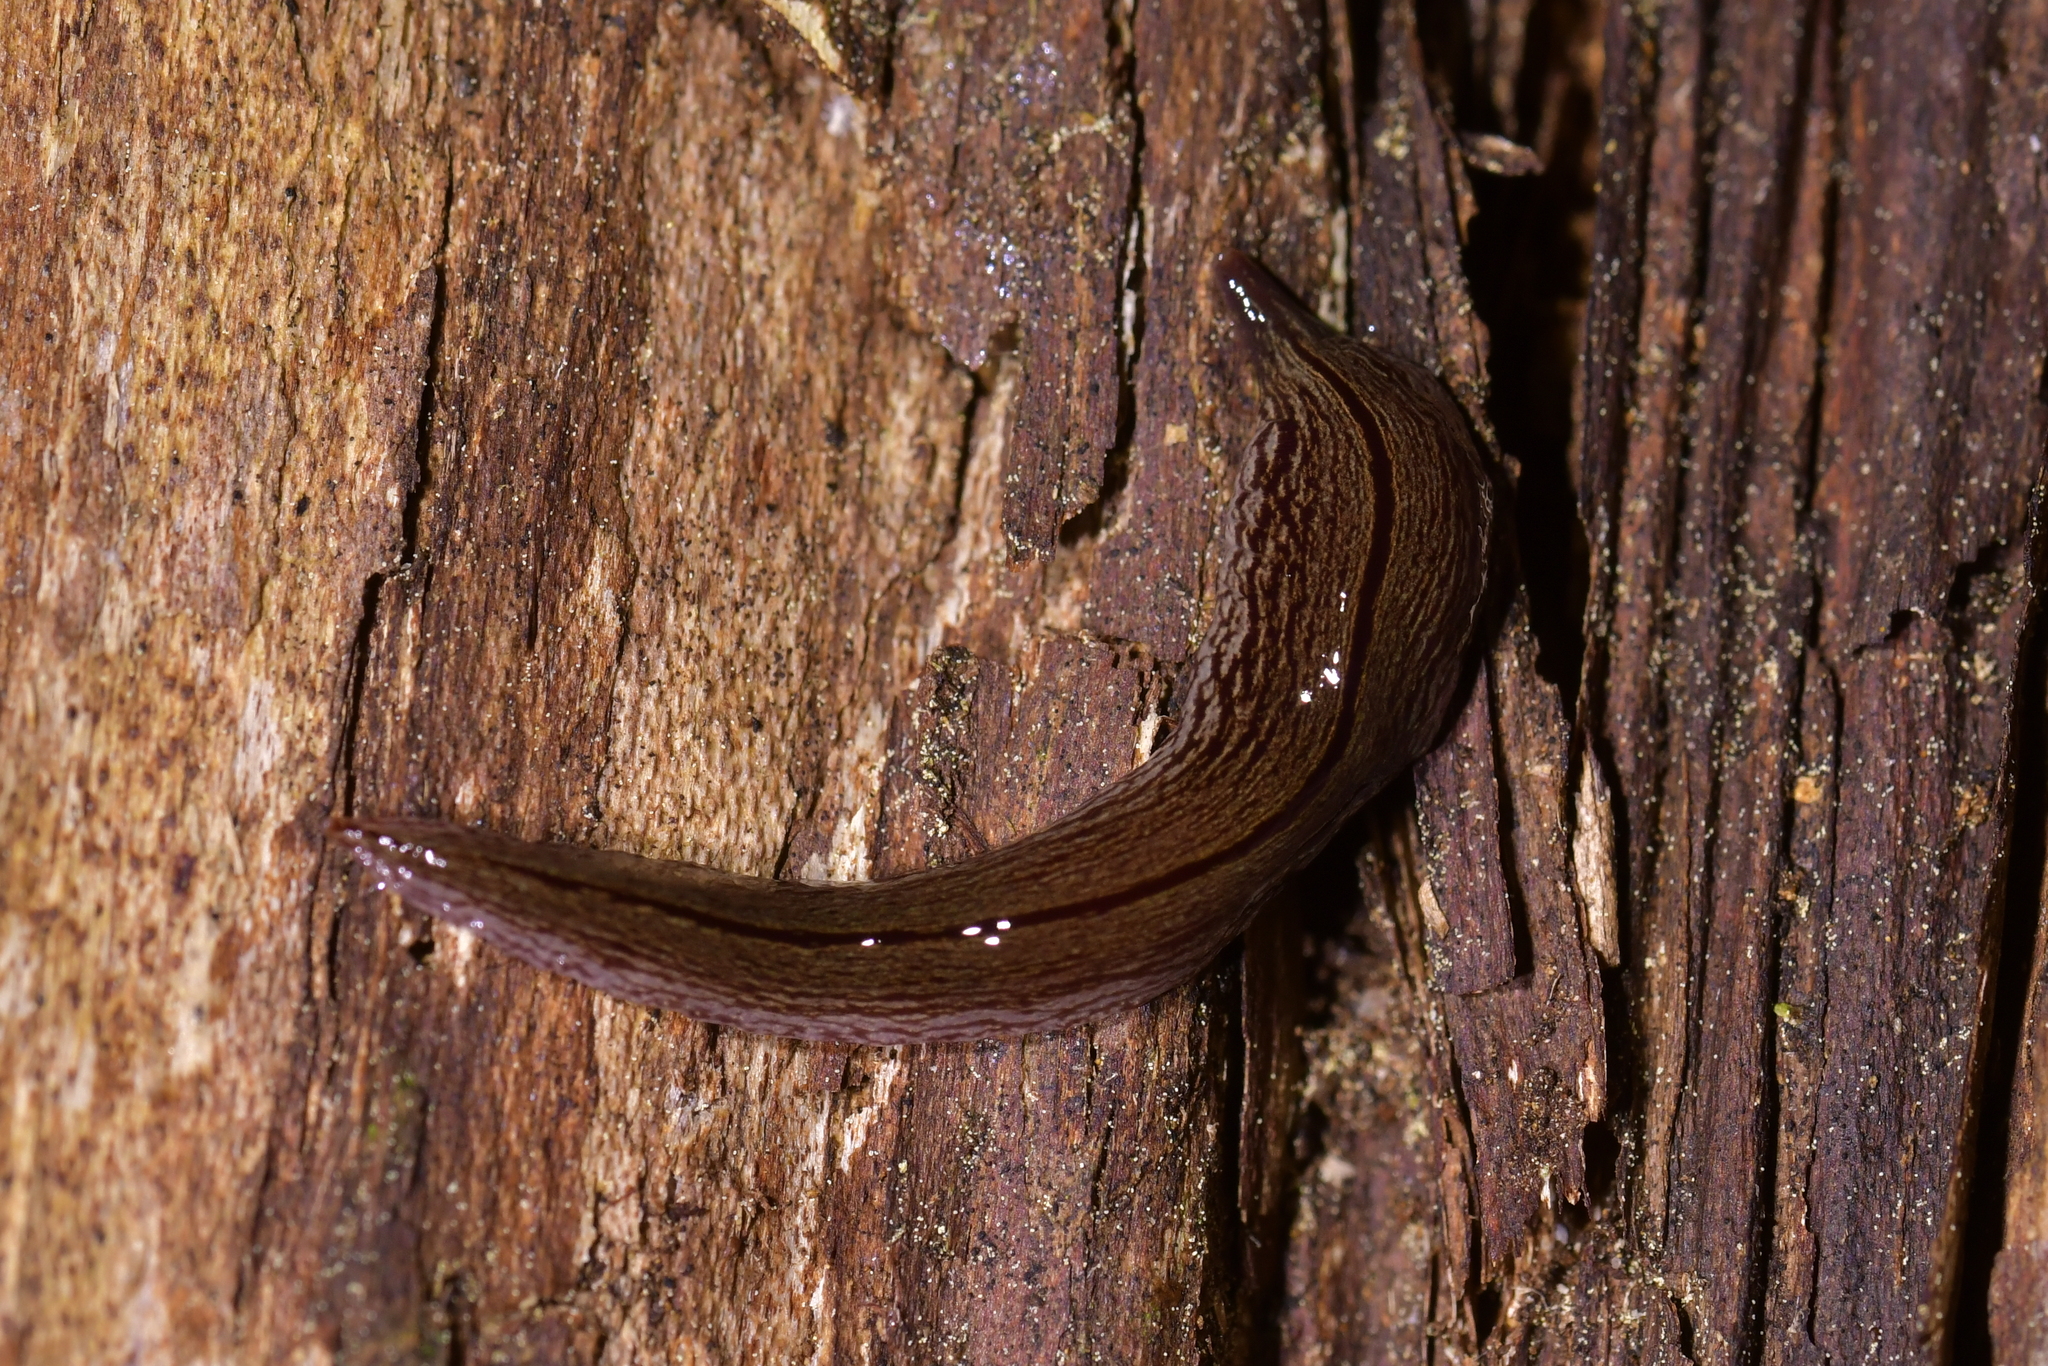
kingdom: Animalia
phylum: Platyhelminthes
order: Tricladida
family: Geoplanidae
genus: Artioposthia
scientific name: Artioposthia exulans
